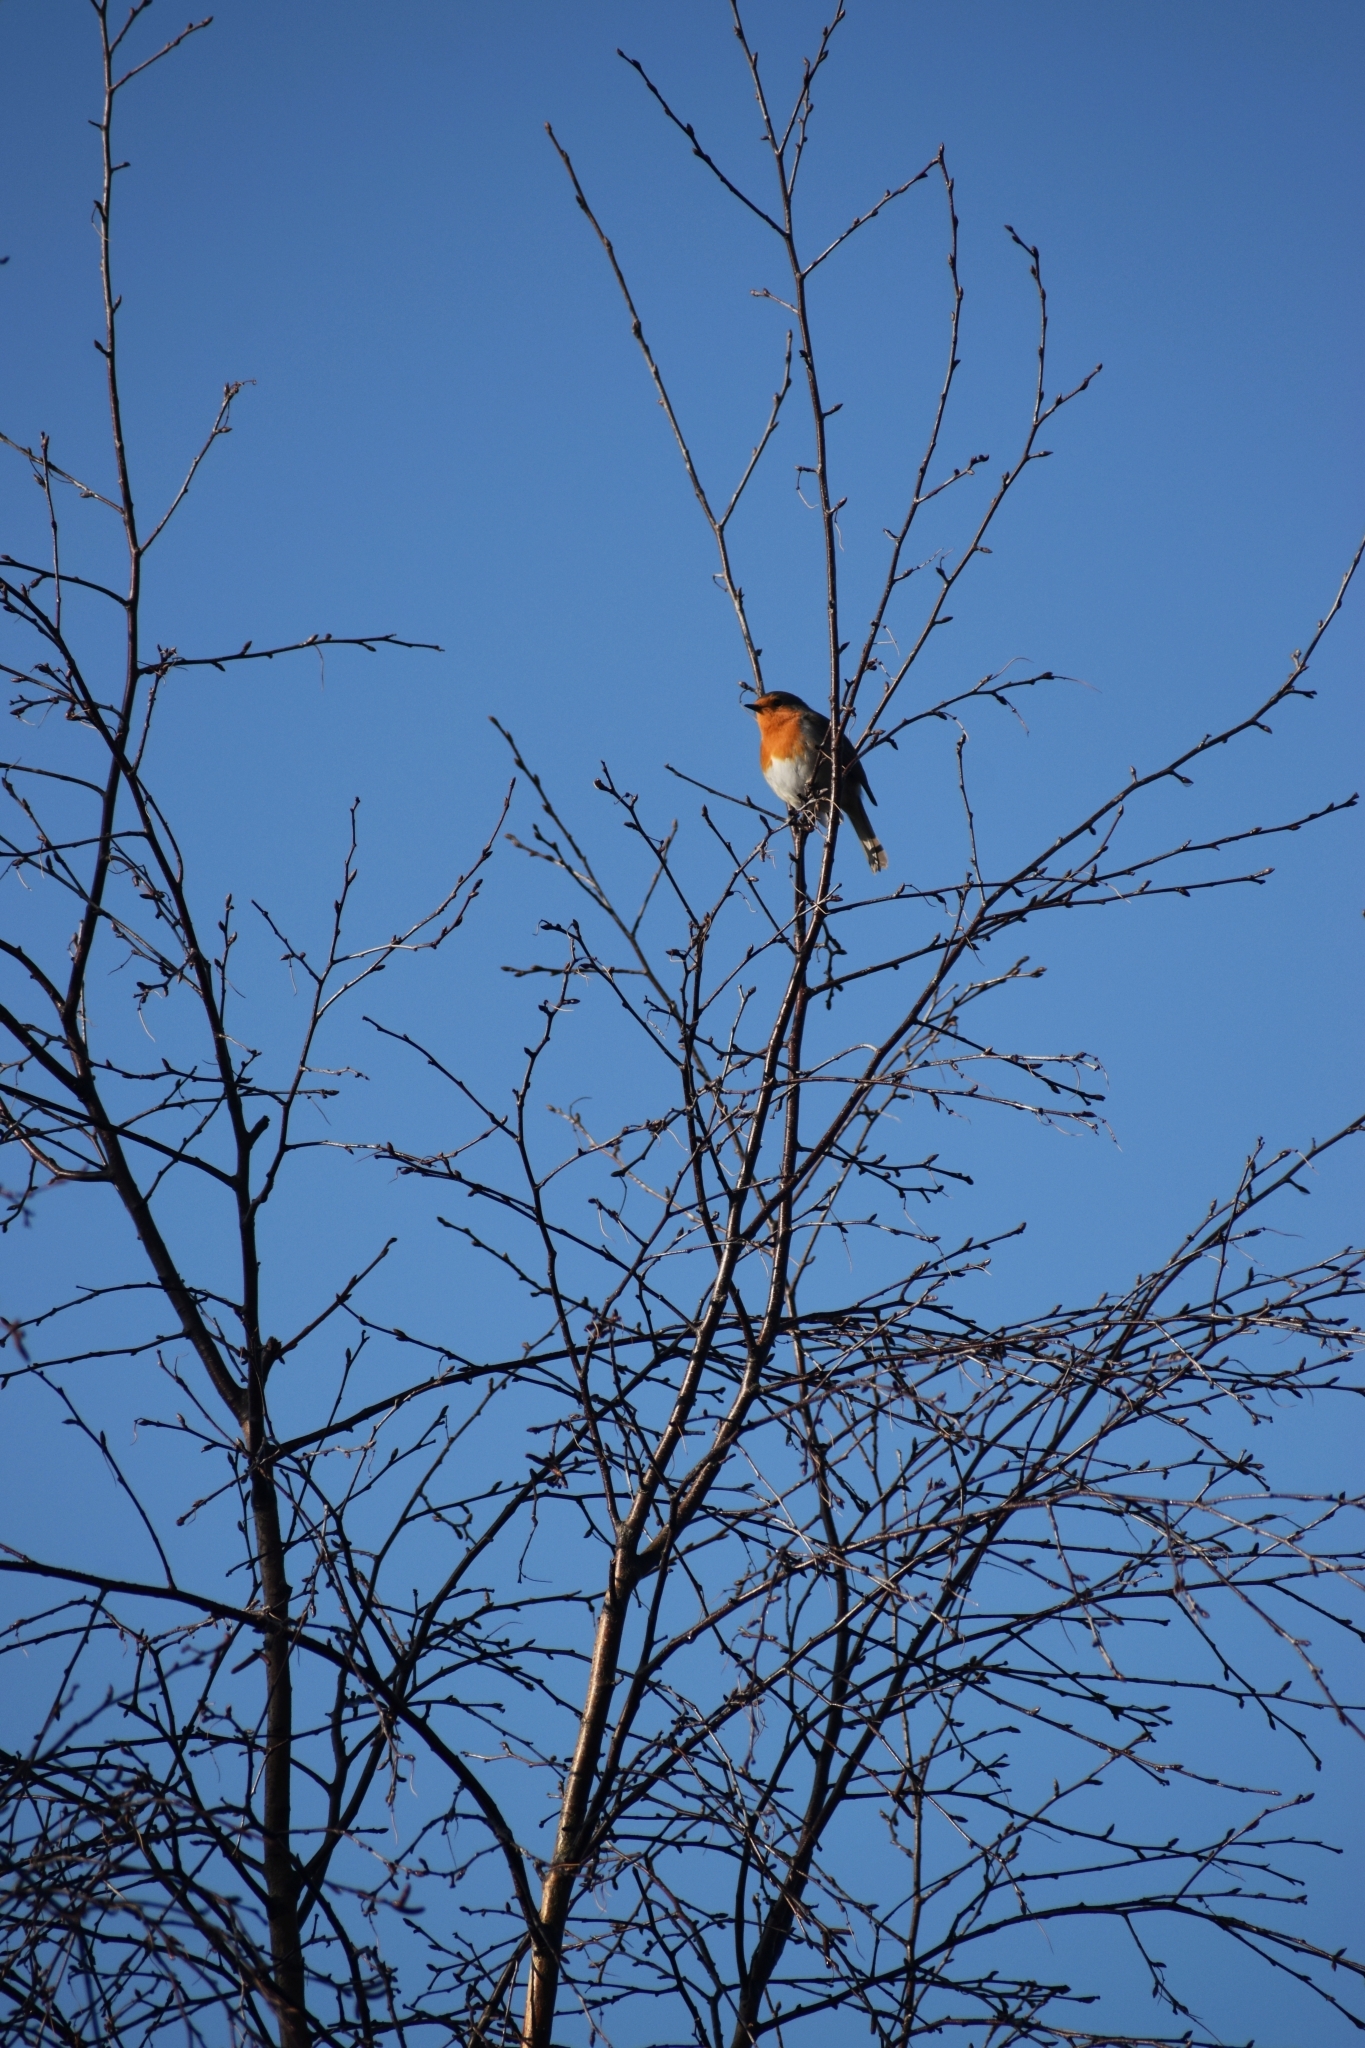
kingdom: Animalia
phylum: Chordata
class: Aves
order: Passeriformes
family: Muscicapidae
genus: Erithacus
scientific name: Erithacus rubecula
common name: European robin
